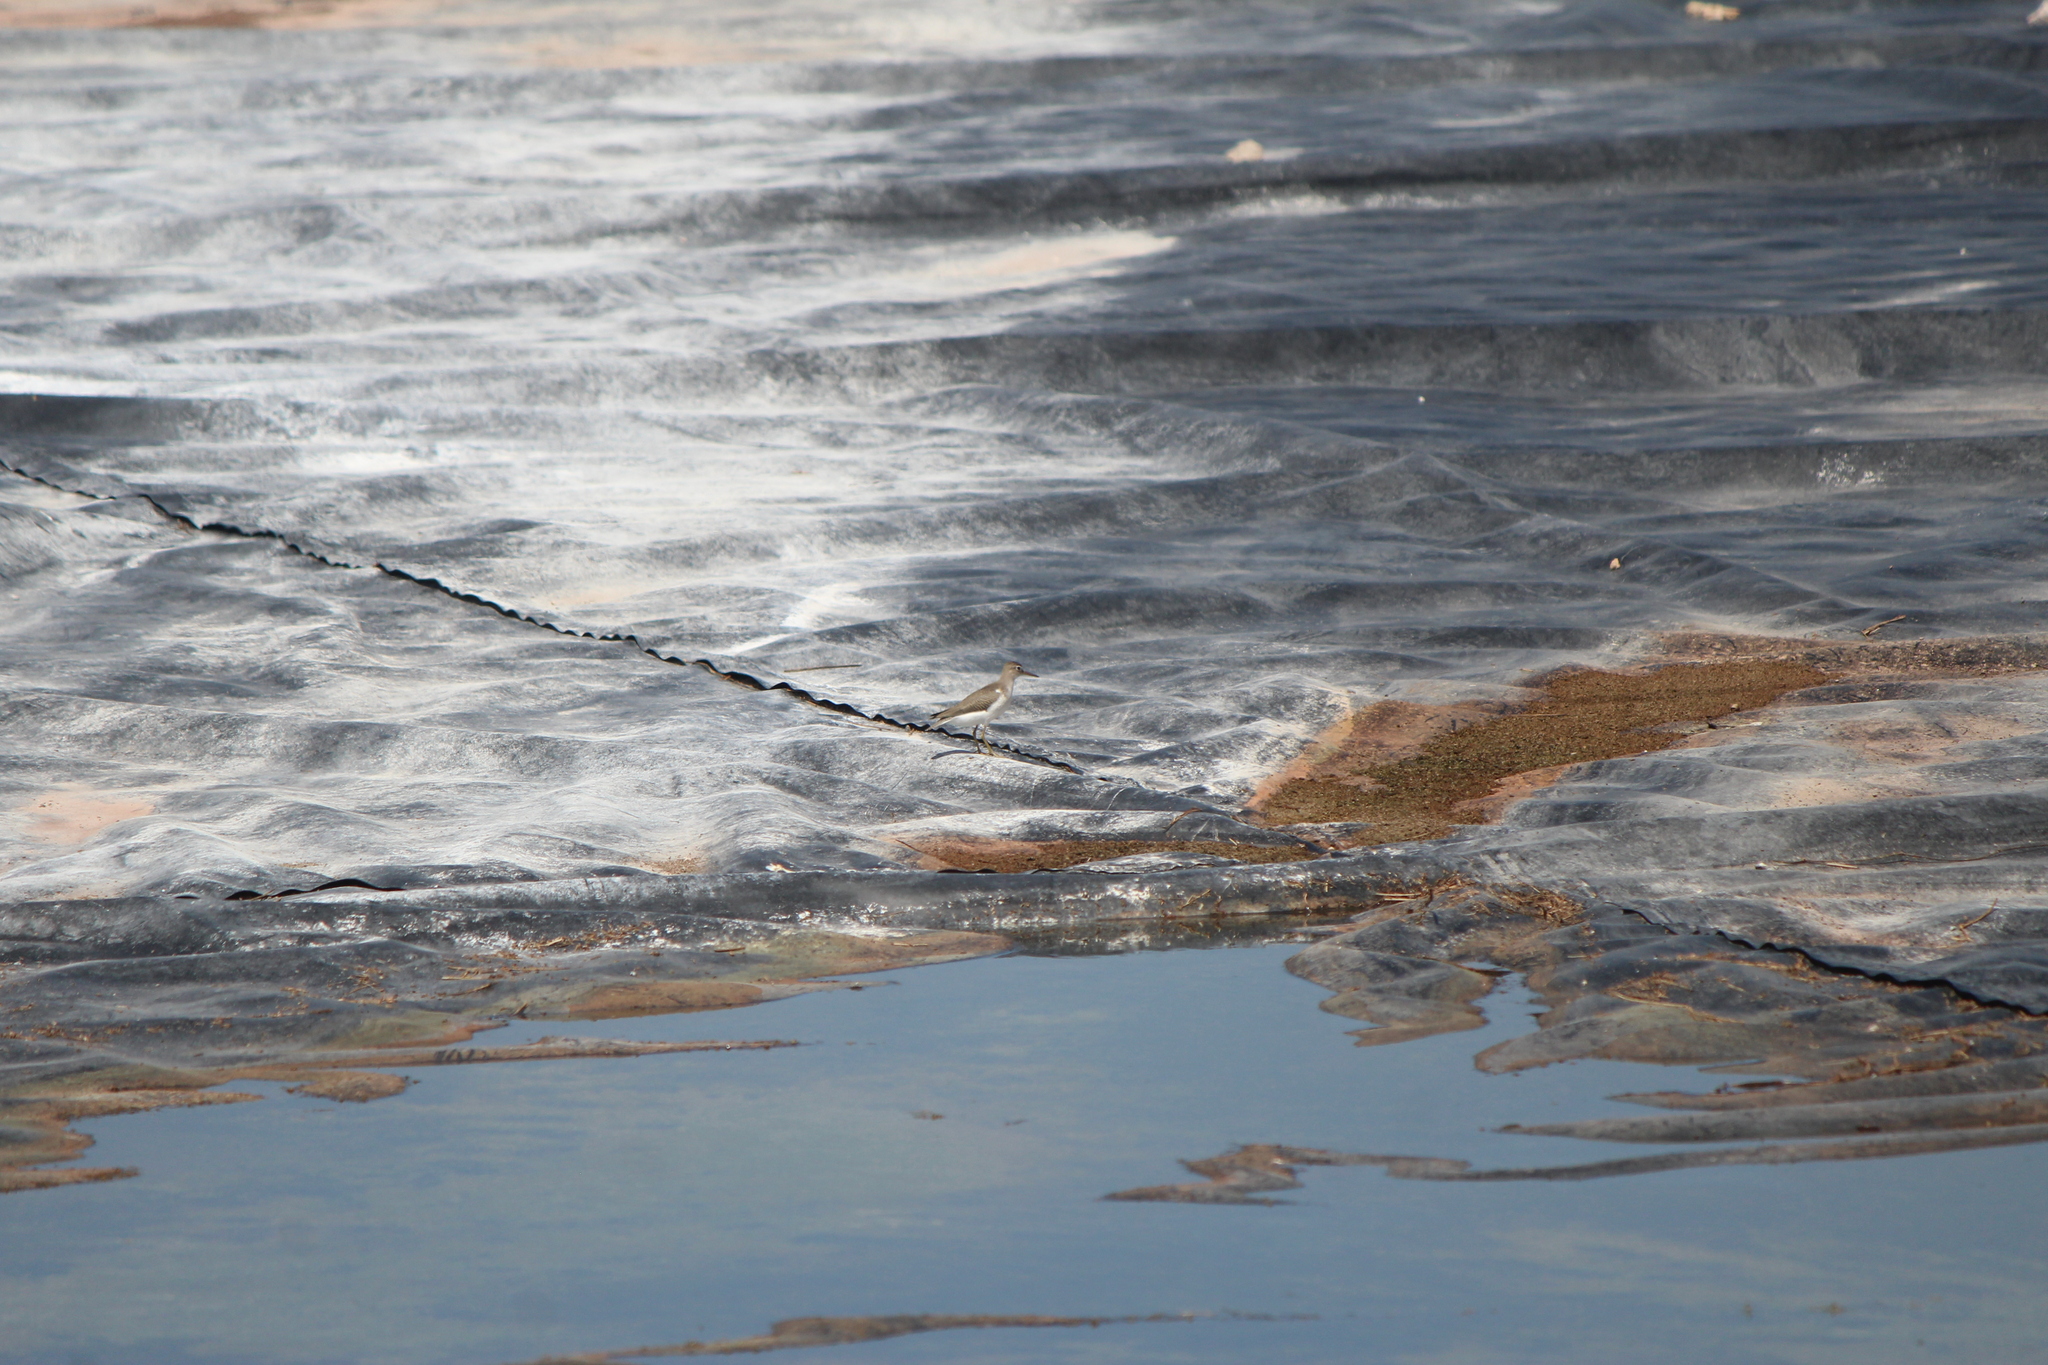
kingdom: Animalia
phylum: Chordata
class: Aves
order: Charadriiformes
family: Scolopacidae
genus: Actitis
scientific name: Actitis macularius
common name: Spotted sandpiper
